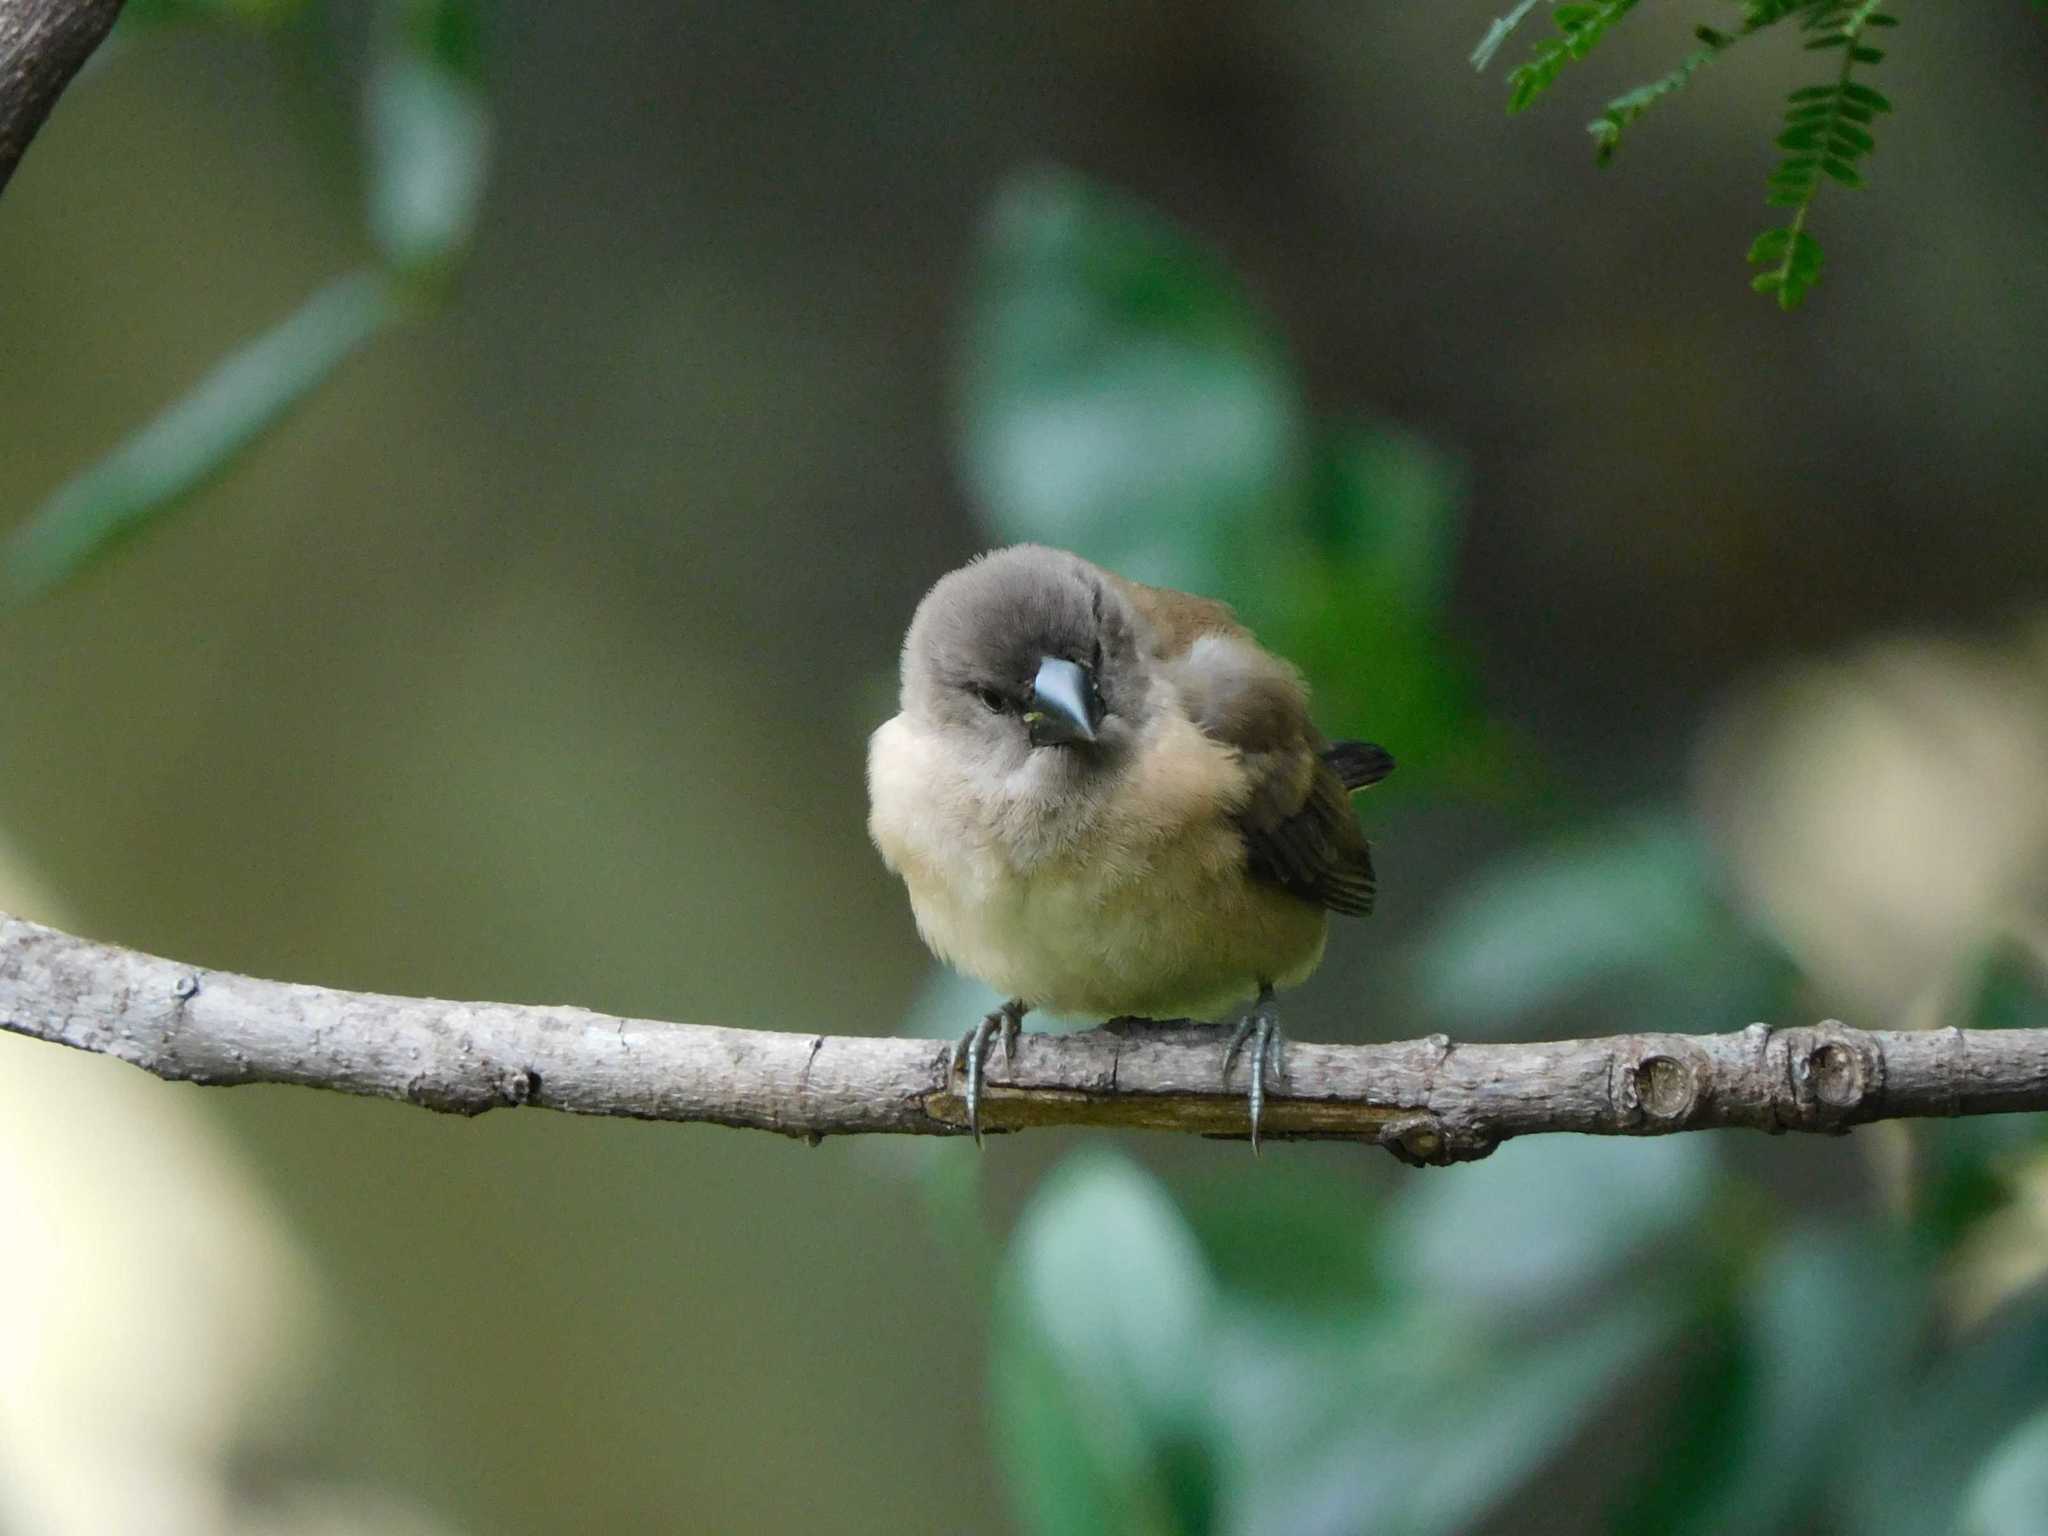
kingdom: Animalia
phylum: Chordata
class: Aves
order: Passeriformes
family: Estrildidae
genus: Lonchura
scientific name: Lonchura cucullata
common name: Bronze mannikin
